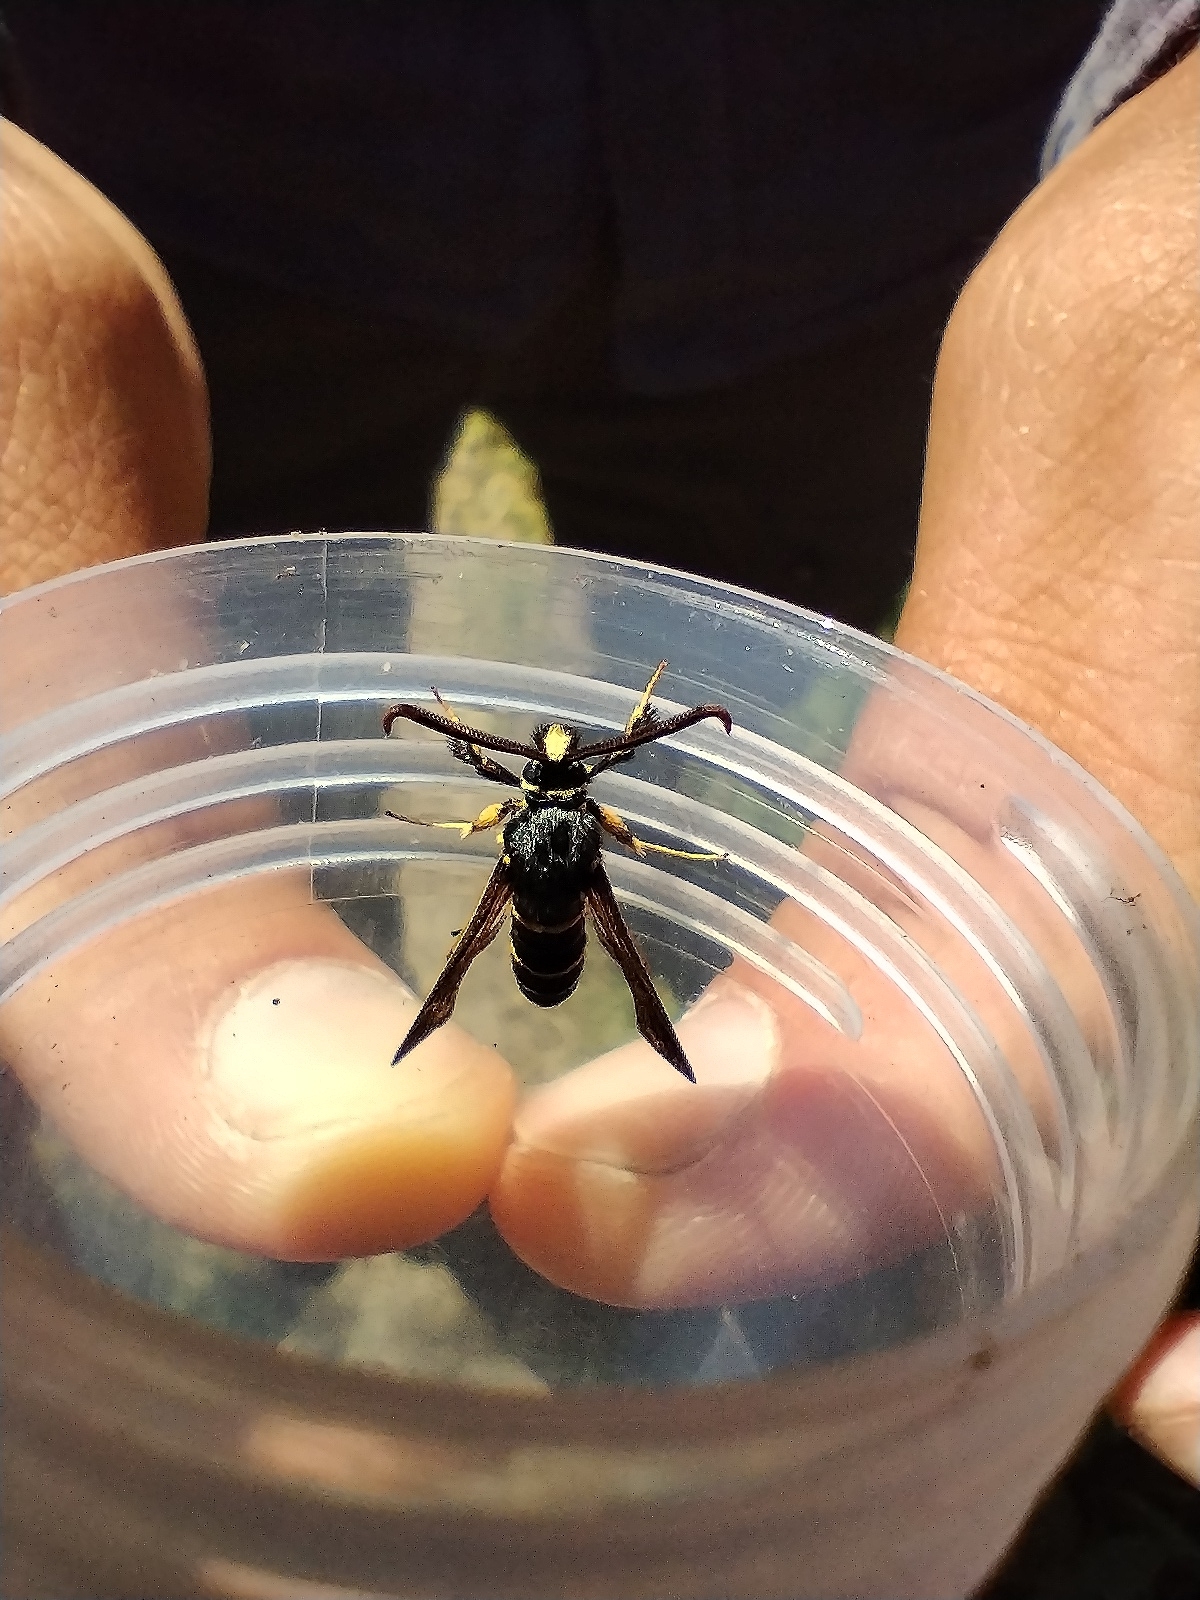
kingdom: Animalia
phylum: Arthropoda
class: Insecta
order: Lepidoptera
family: Sesiidae
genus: Paranthrene
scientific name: Paranthrene tabaniformis
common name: Dusky clearwing
